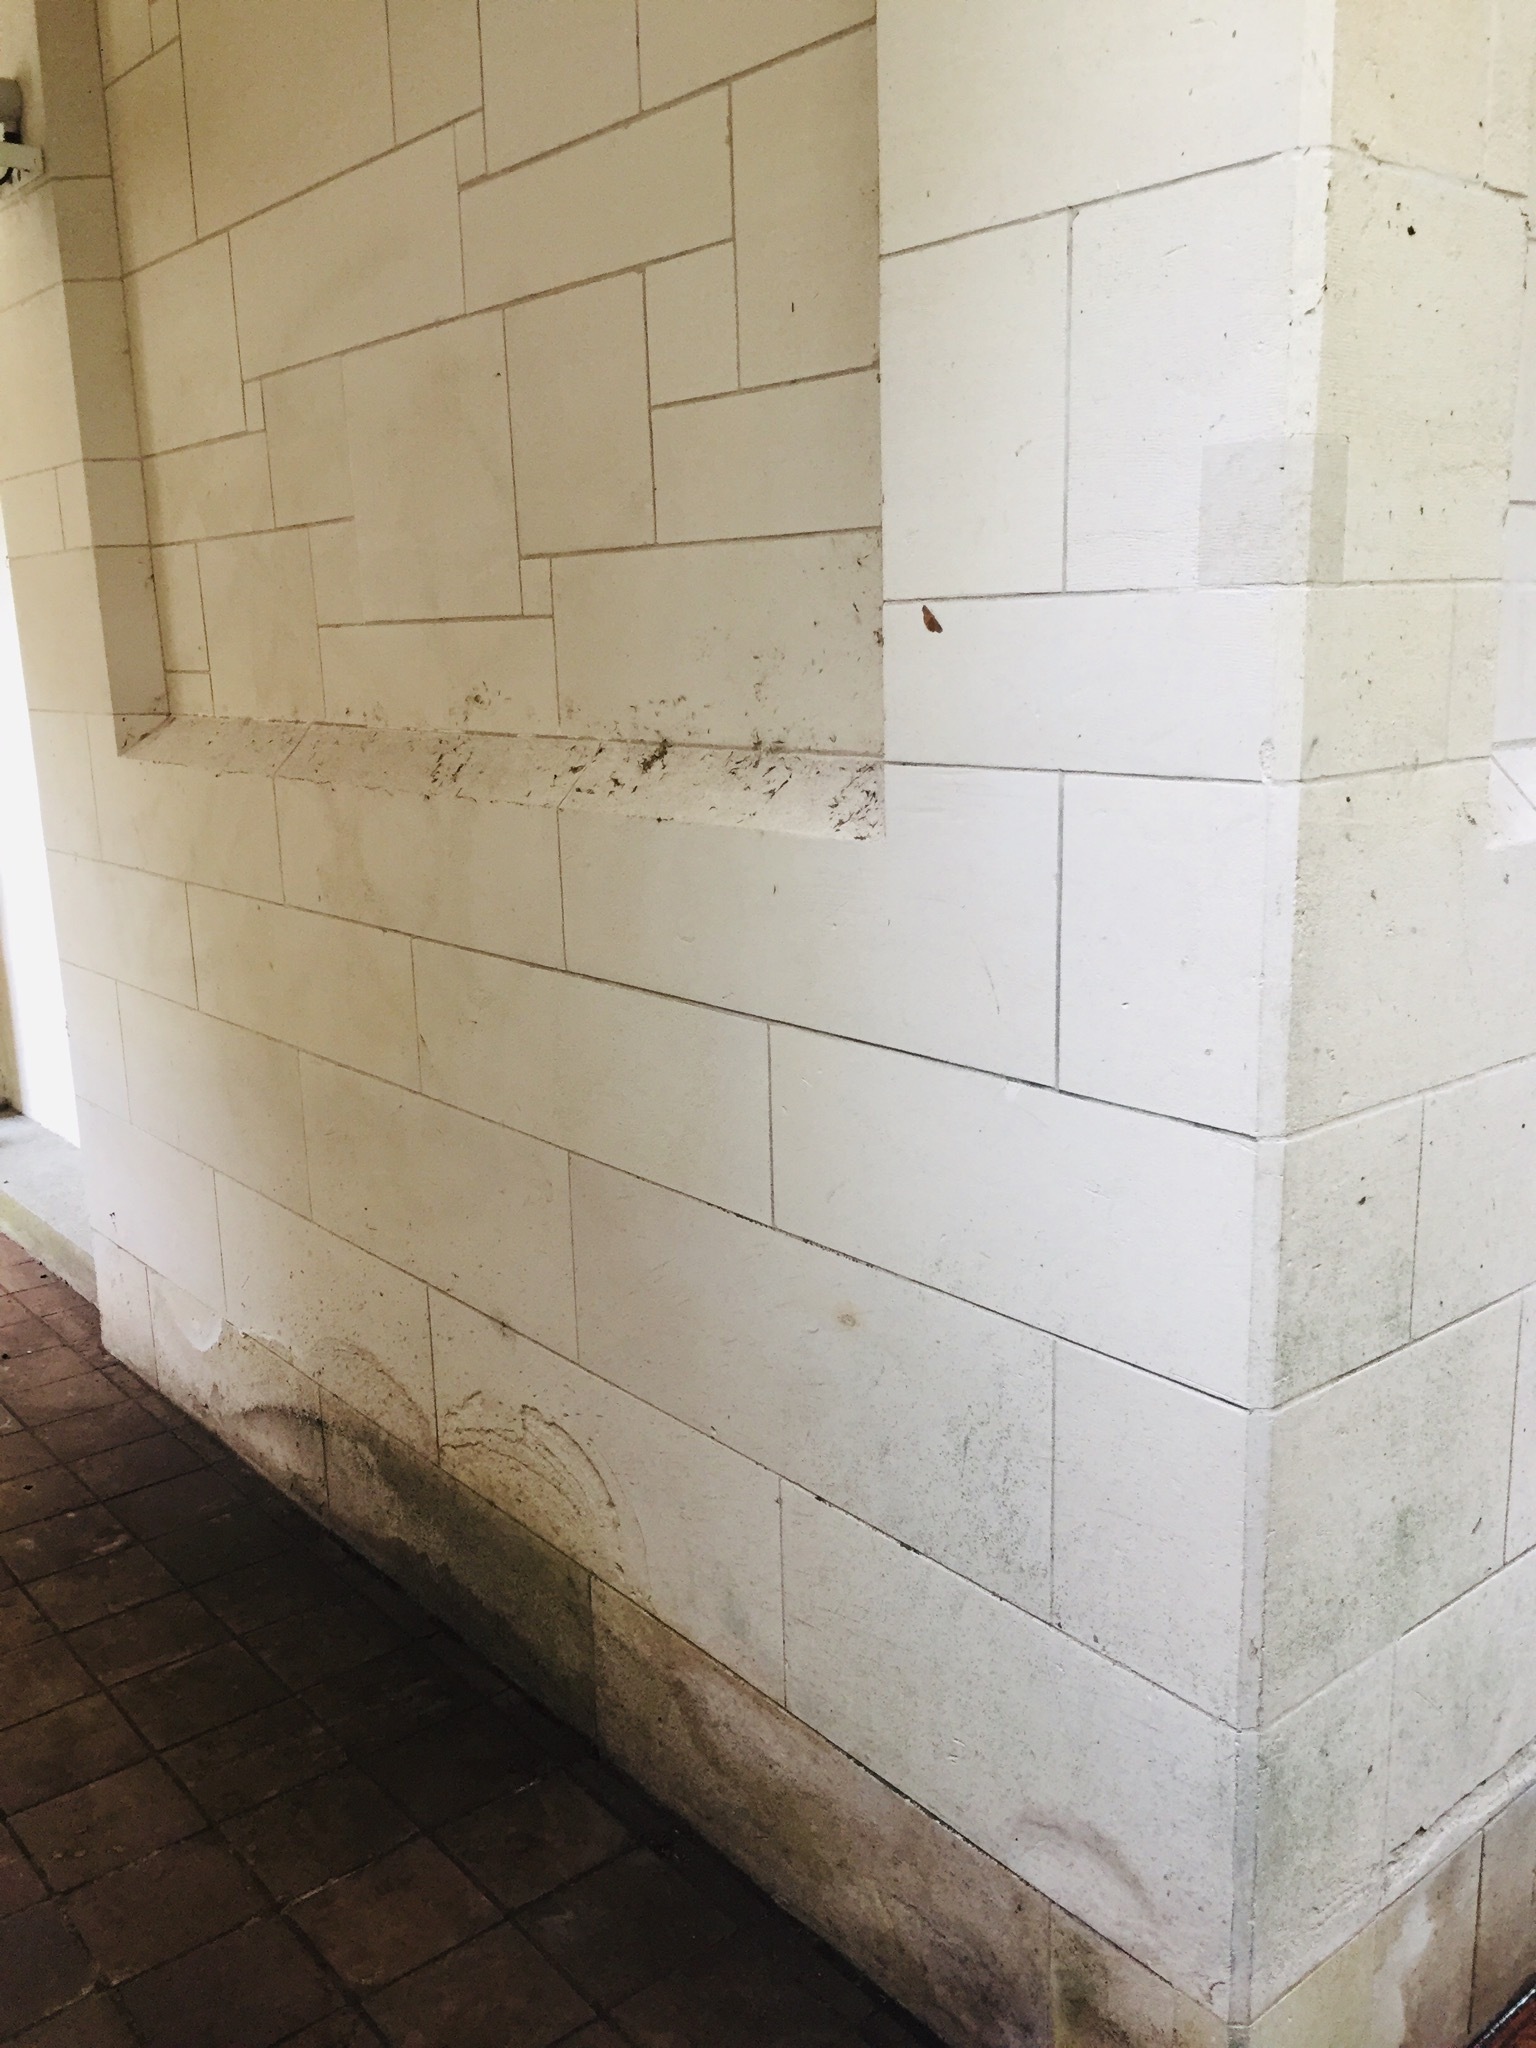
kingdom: Animalia
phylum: Arthropoda
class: Insecta
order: Lepidoptera
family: Geometridae
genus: Xyridacma
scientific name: Xyridacma ustaria
